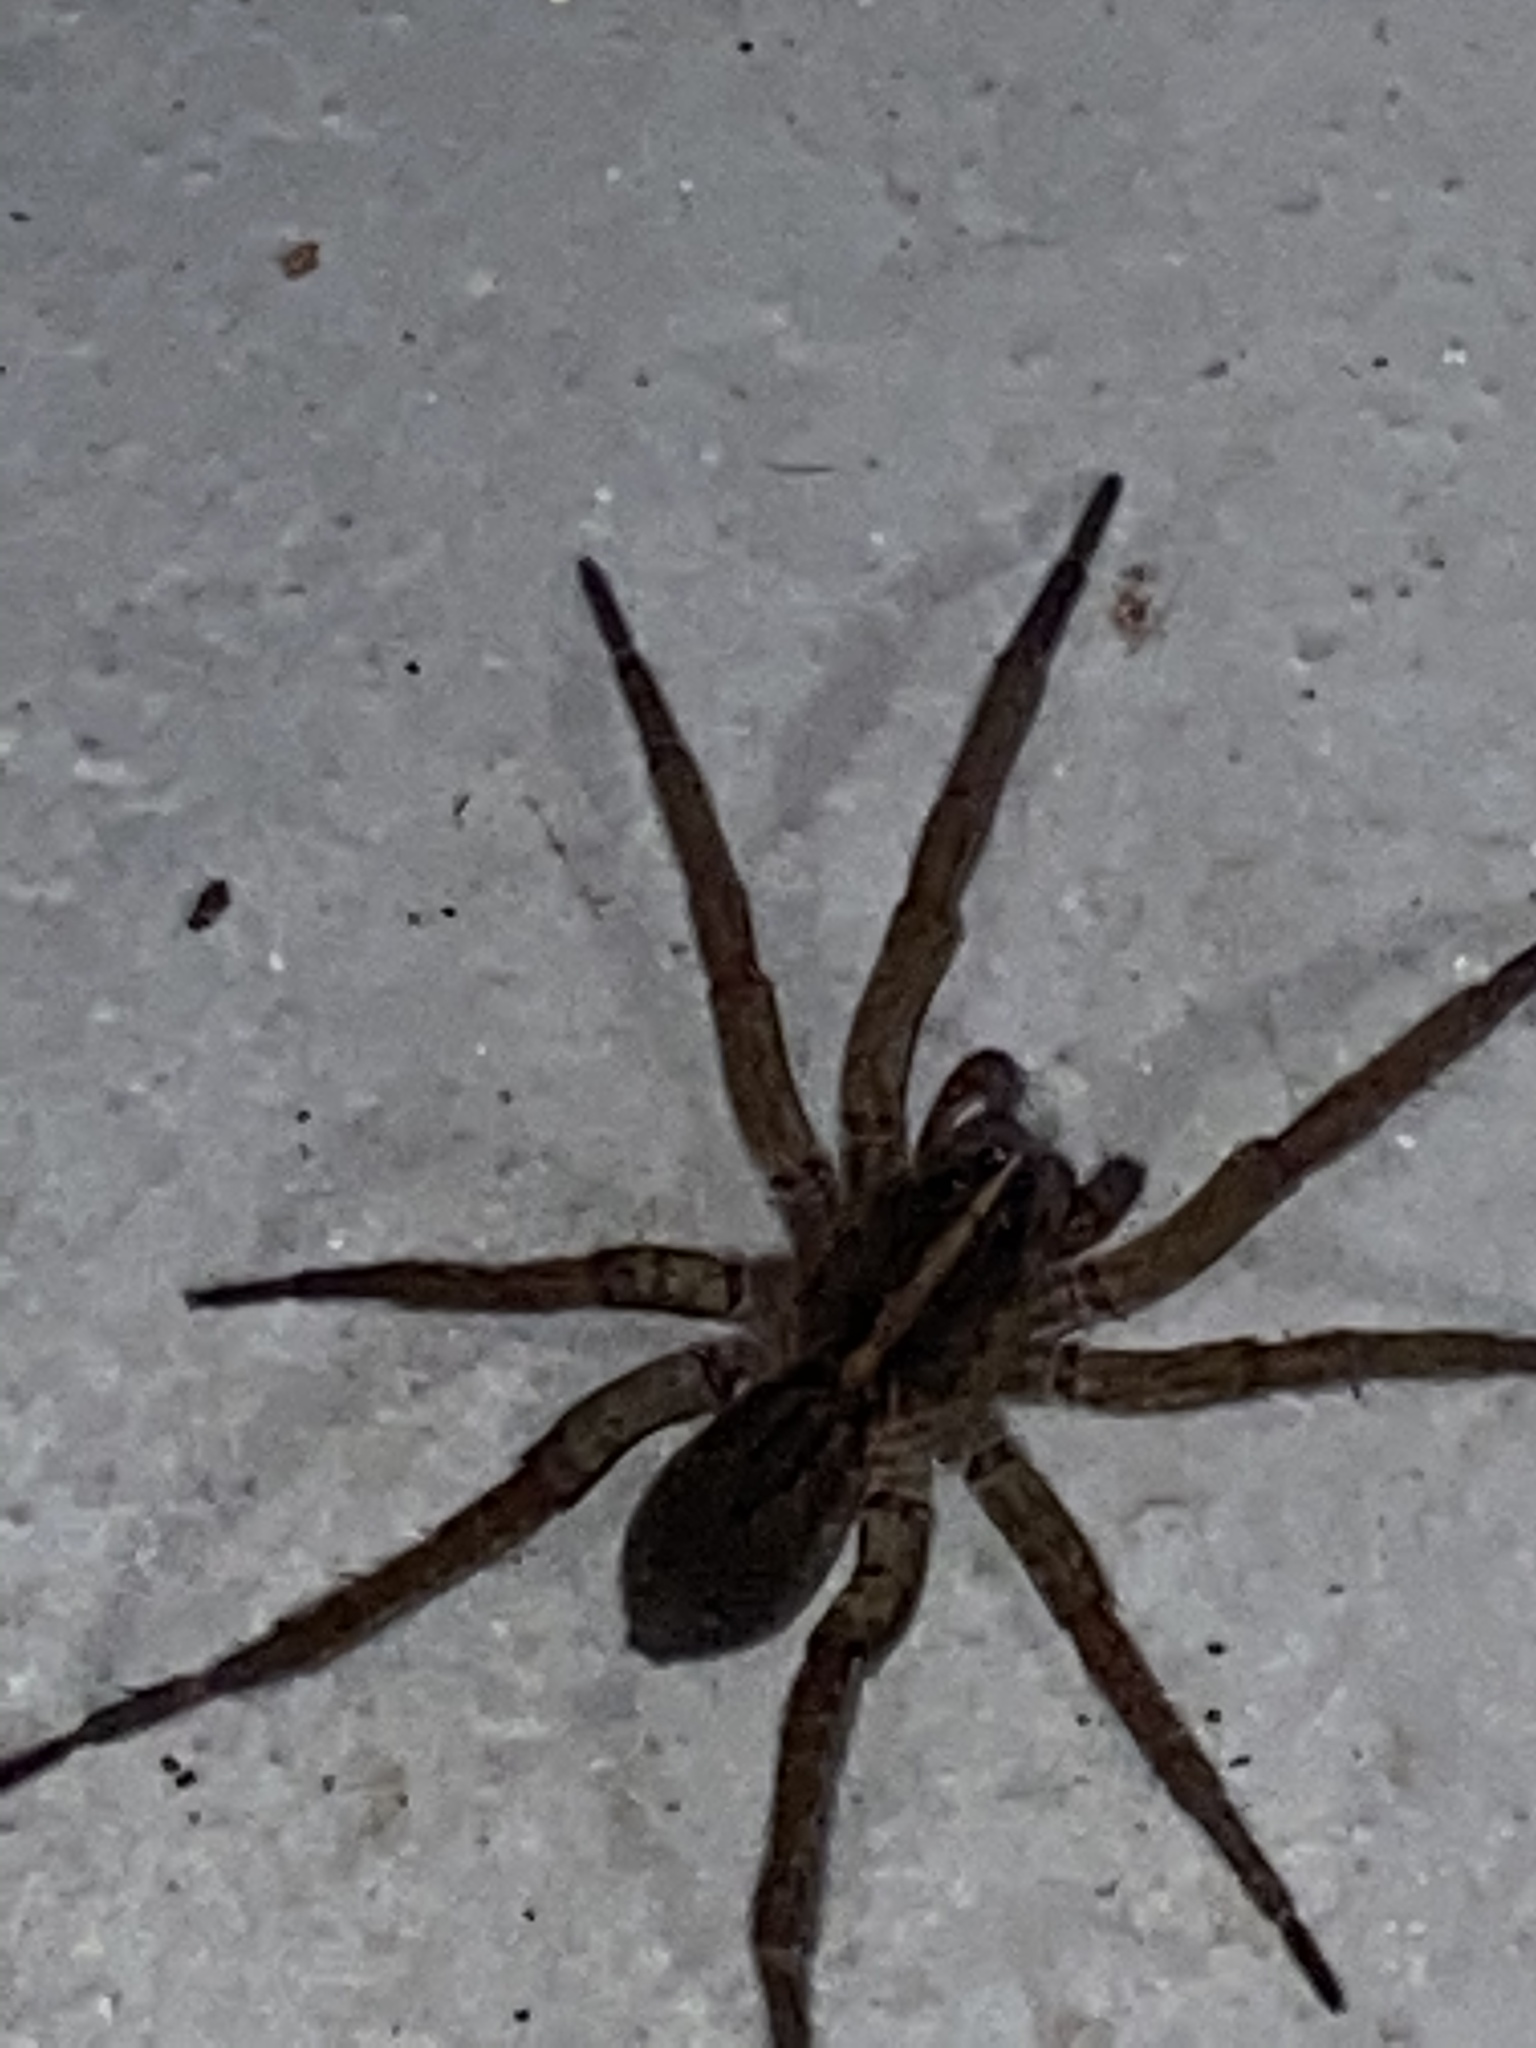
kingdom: Animalia
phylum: Arthropoda
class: Arachnida
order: Araneae
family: Lycosidae
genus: Tigrosa
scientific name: Tigrosa helluo
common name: Wetland giant wolf spider
